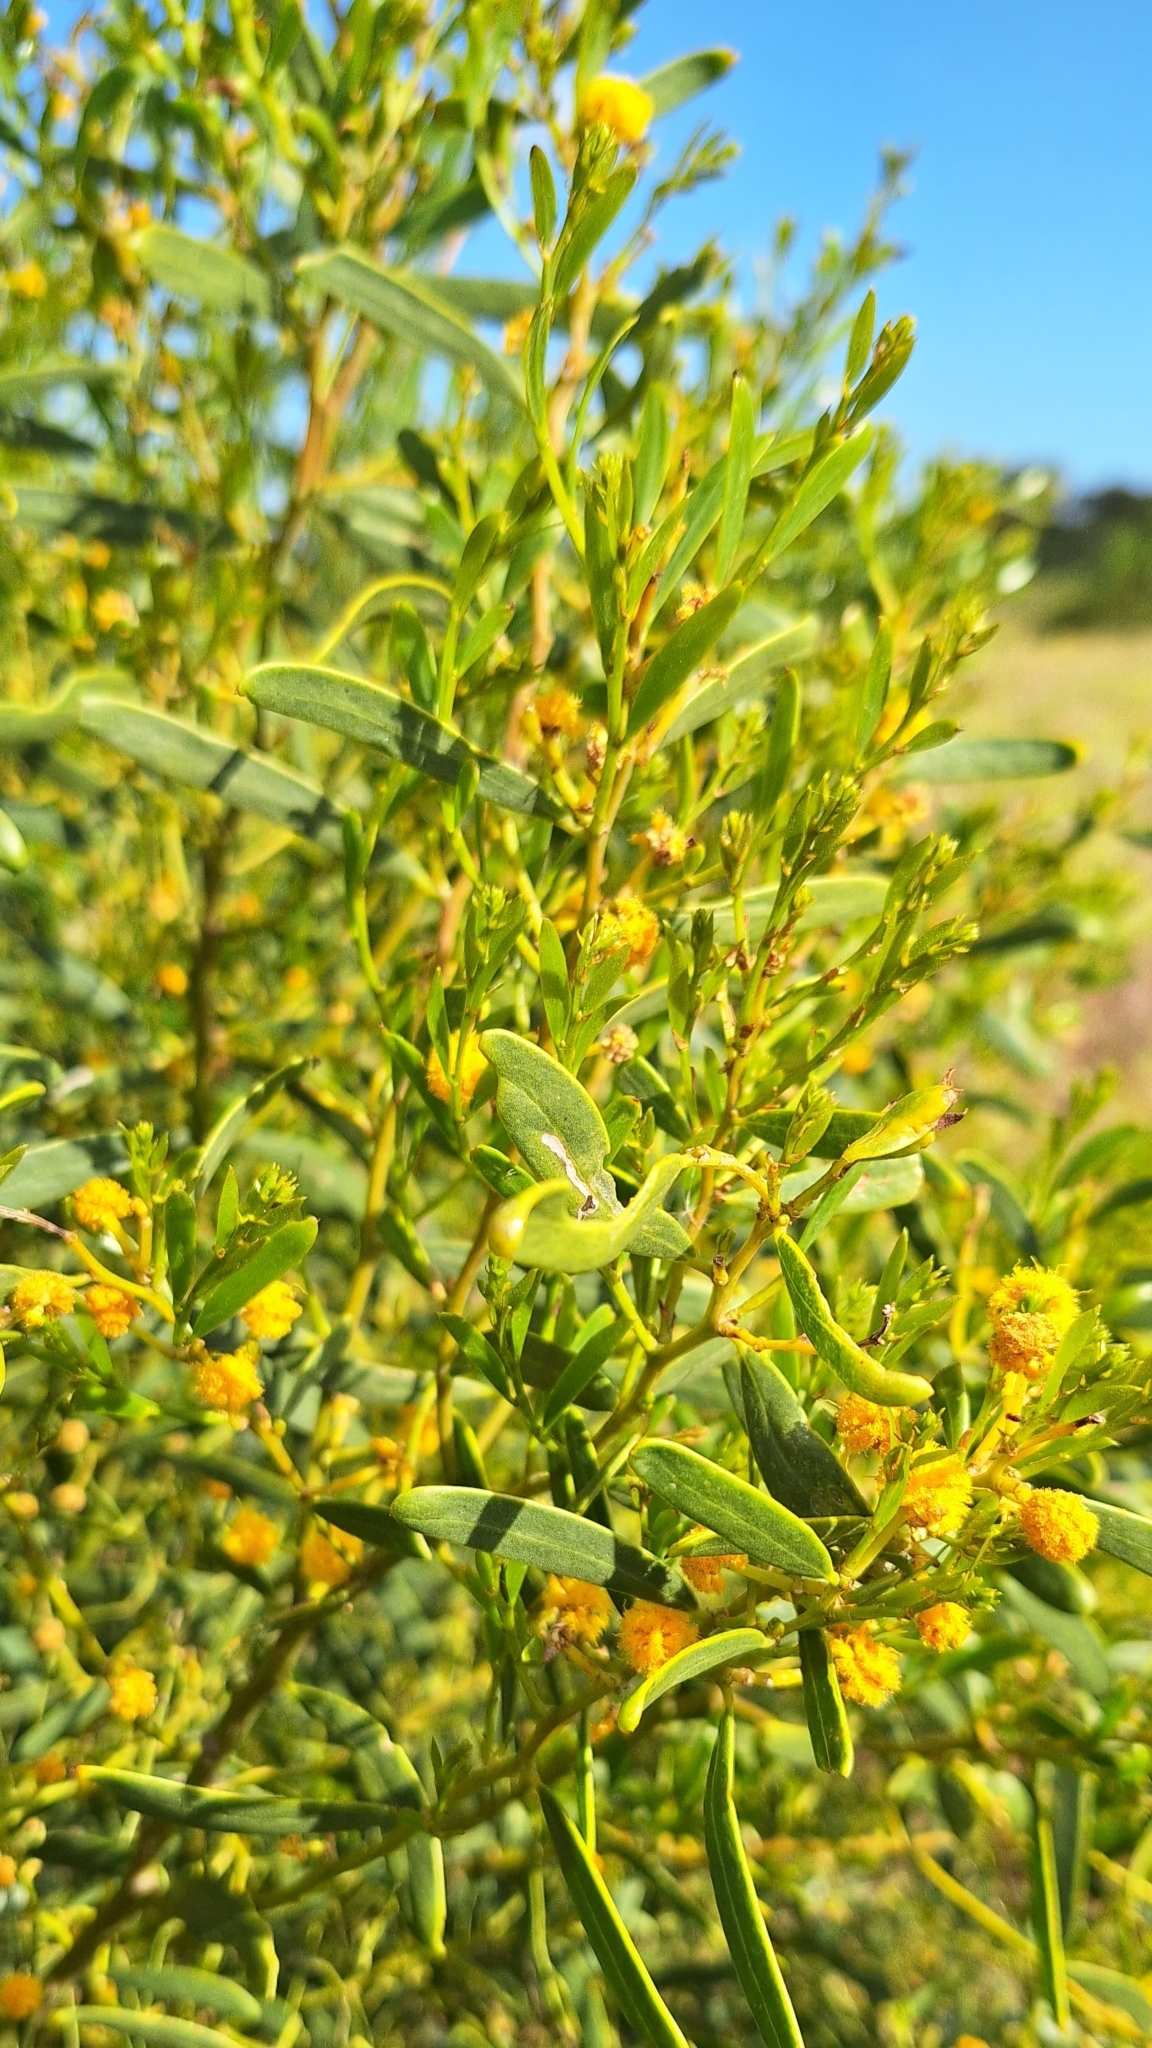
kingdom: Plantae
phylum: Tracheophyta
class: Magnoliopsida
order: Fabales
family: Fabaceae
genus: Acacia
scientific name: Acacia ligulata
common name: Dune wattle
